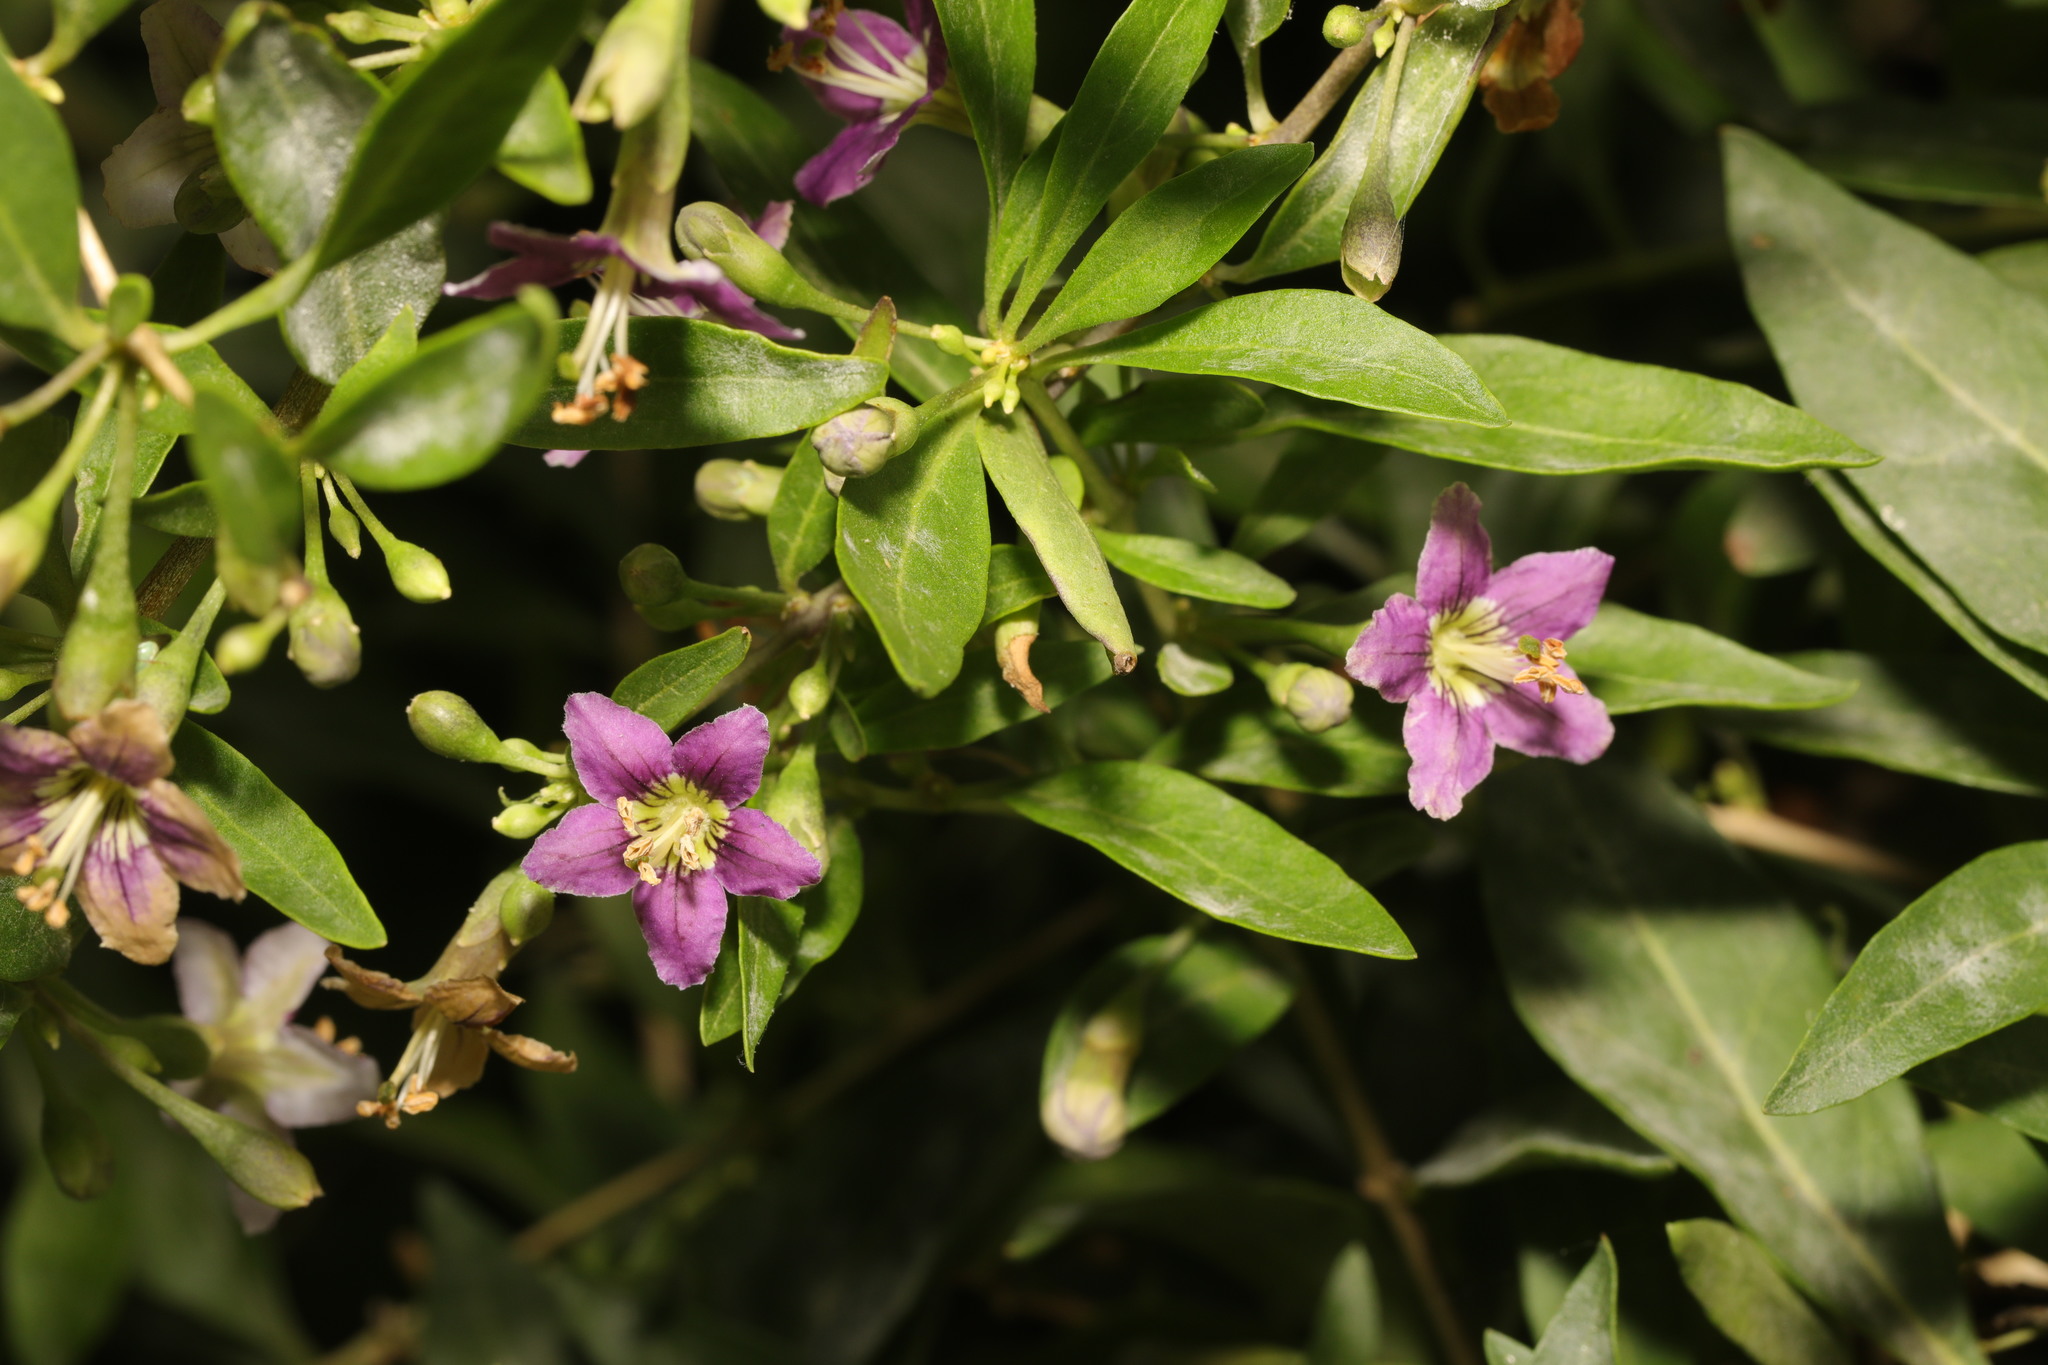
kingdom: Plantae
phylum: Tracheophyta
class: Magnoliopsida
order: Solanales
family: Solanaceae
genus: Lycium
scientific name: Lycium barbarum
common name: Duke of argyll's teaplant
